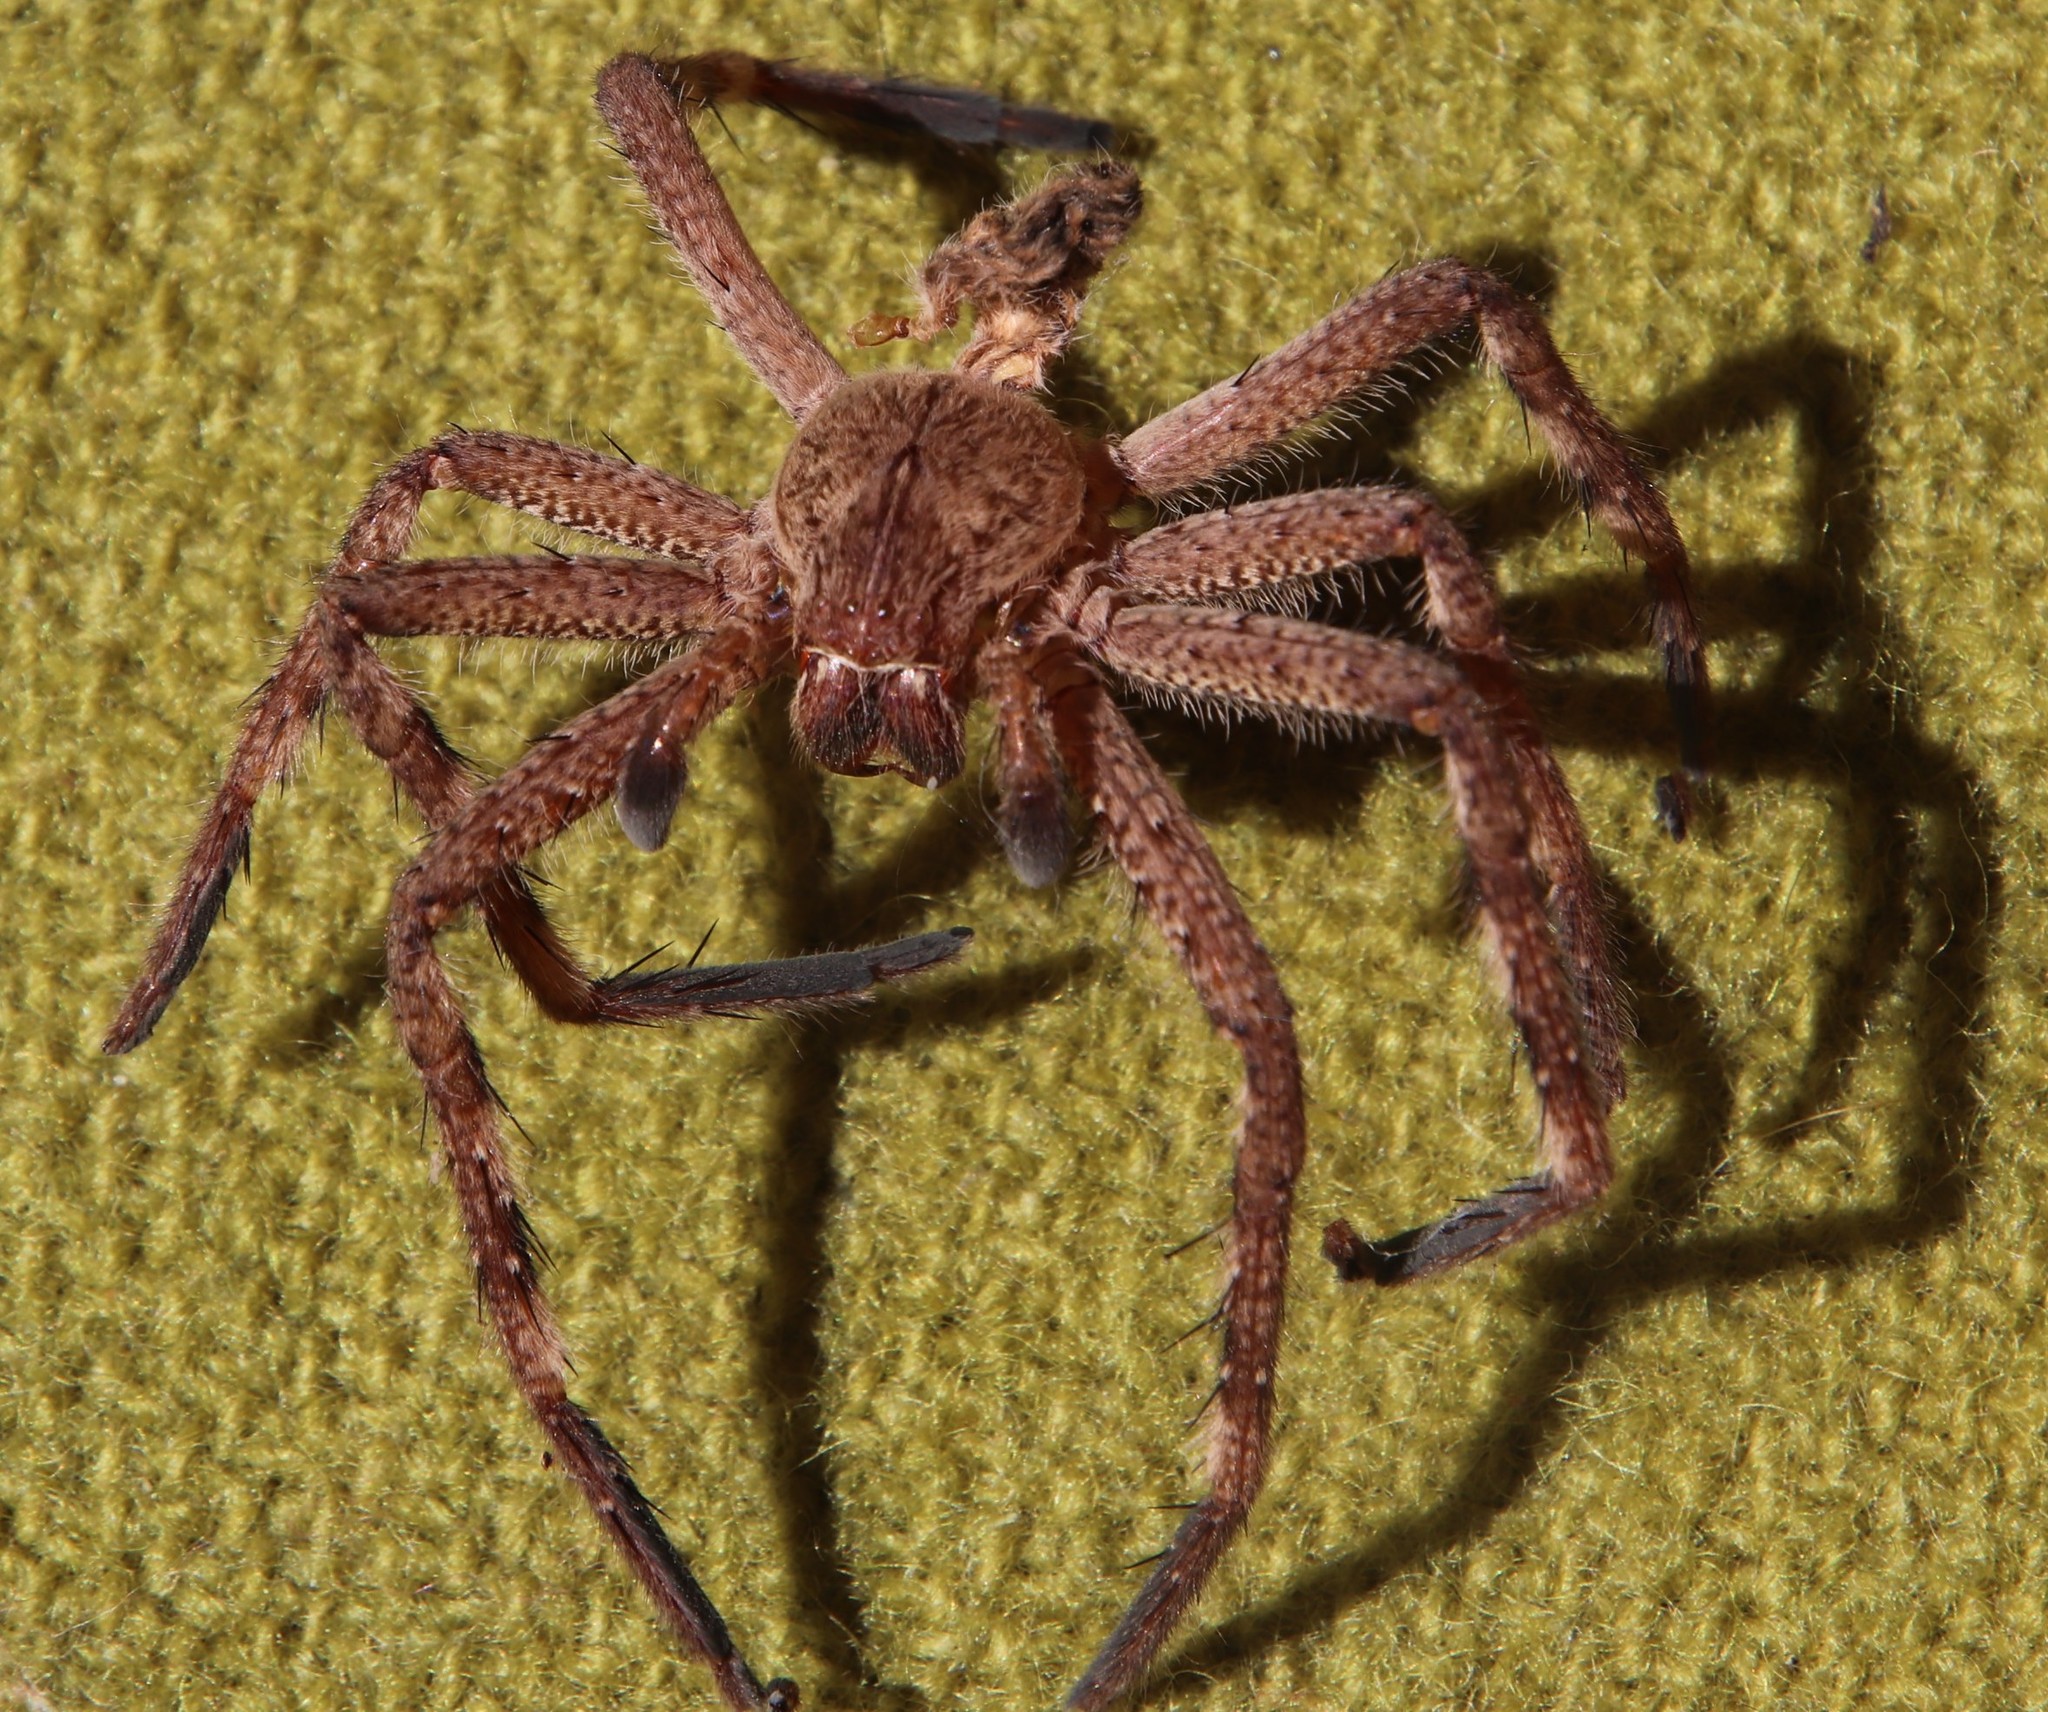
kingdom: Animalia
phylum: Arthropoda
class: Arachnida
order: Araneae
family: Sparassidae
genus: Palystes
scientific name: Palystes superciliosus
